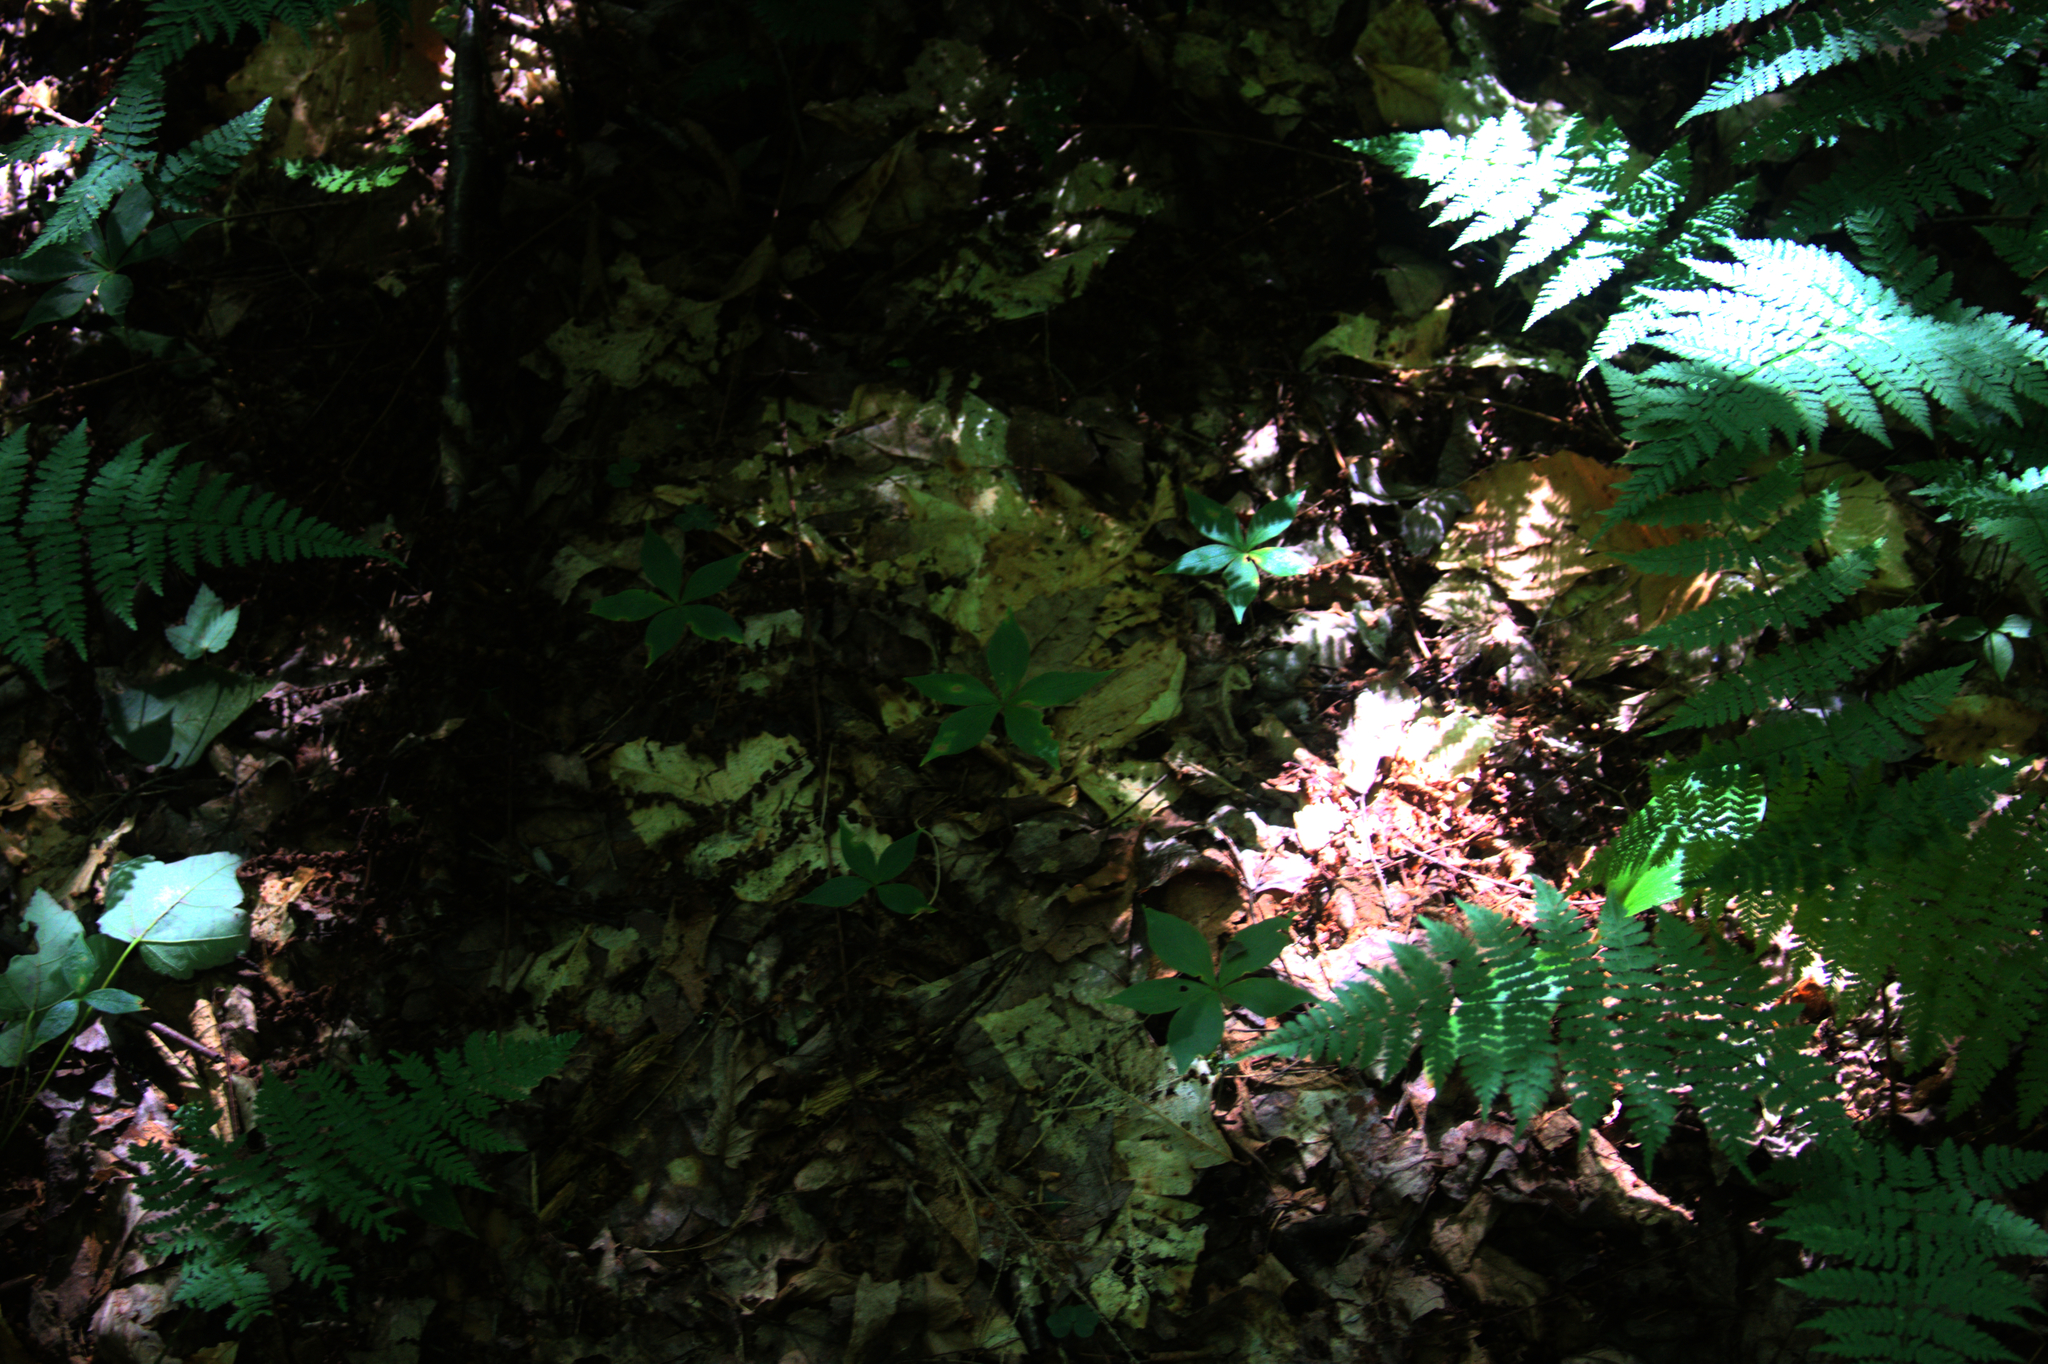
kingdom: Plantae
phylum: Tracheophyta
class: Magnoliopsida
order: Ericales
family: Primulaceae
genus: Lysimachia
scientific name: Lysimachia borealis
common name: American starflower
